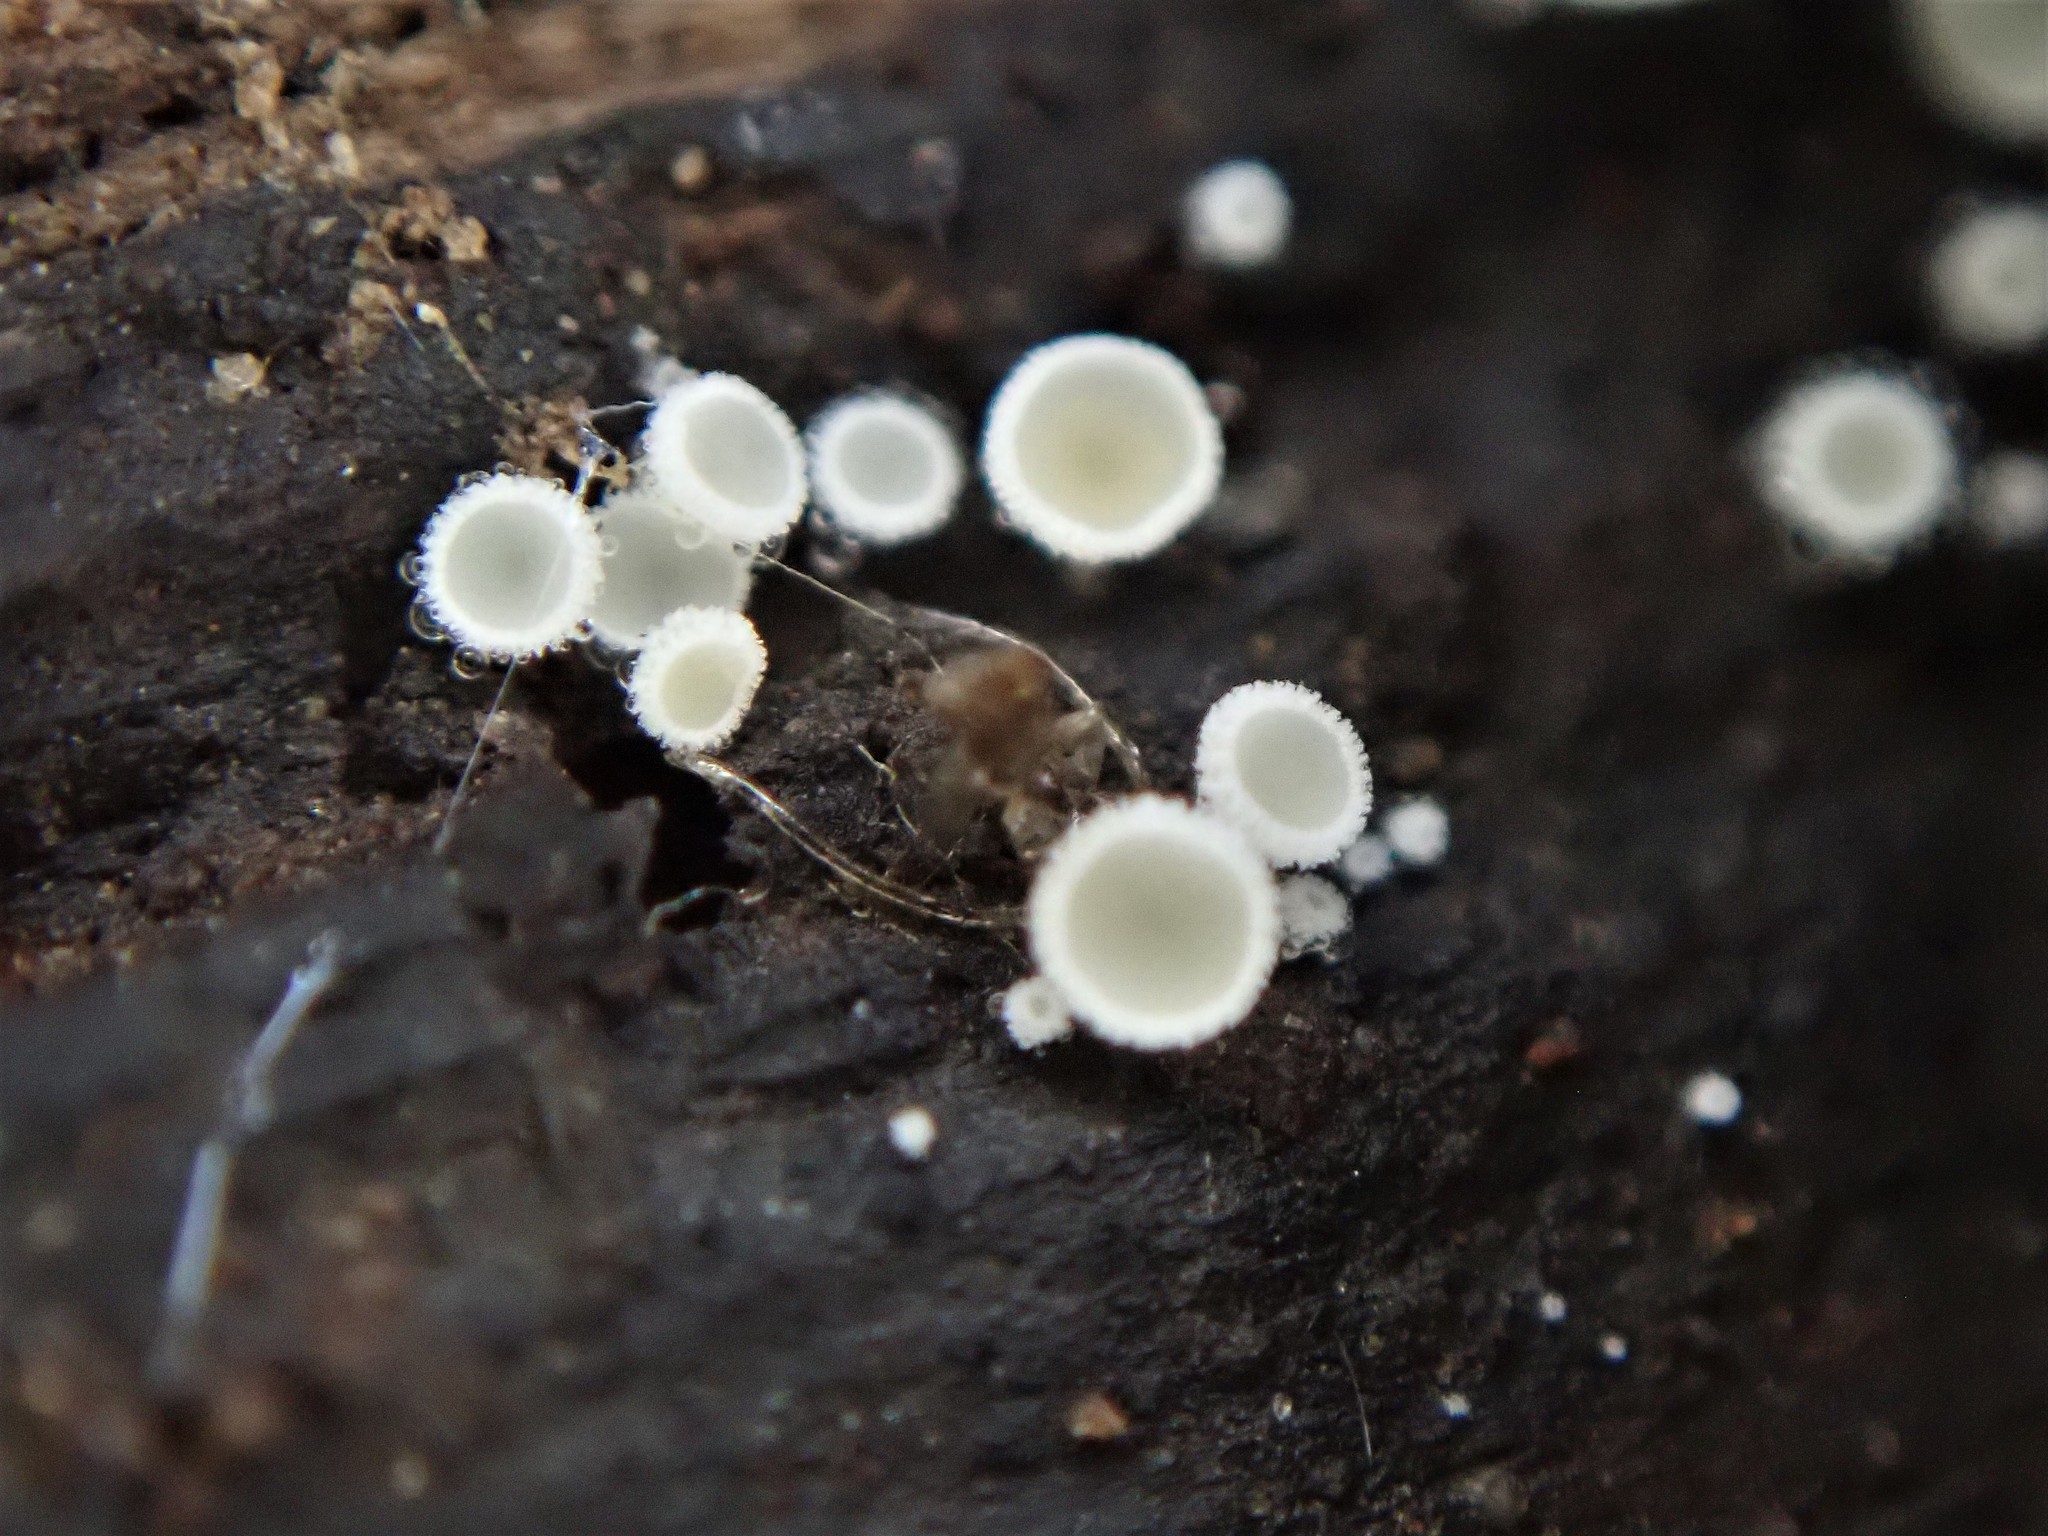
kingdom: Fungi
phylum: Ascomycota
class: Leotiomycetes
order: Helotiales
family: Lachnaceae
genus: Lachnum
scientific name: Lachnum virgineum
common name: Snowy disco
